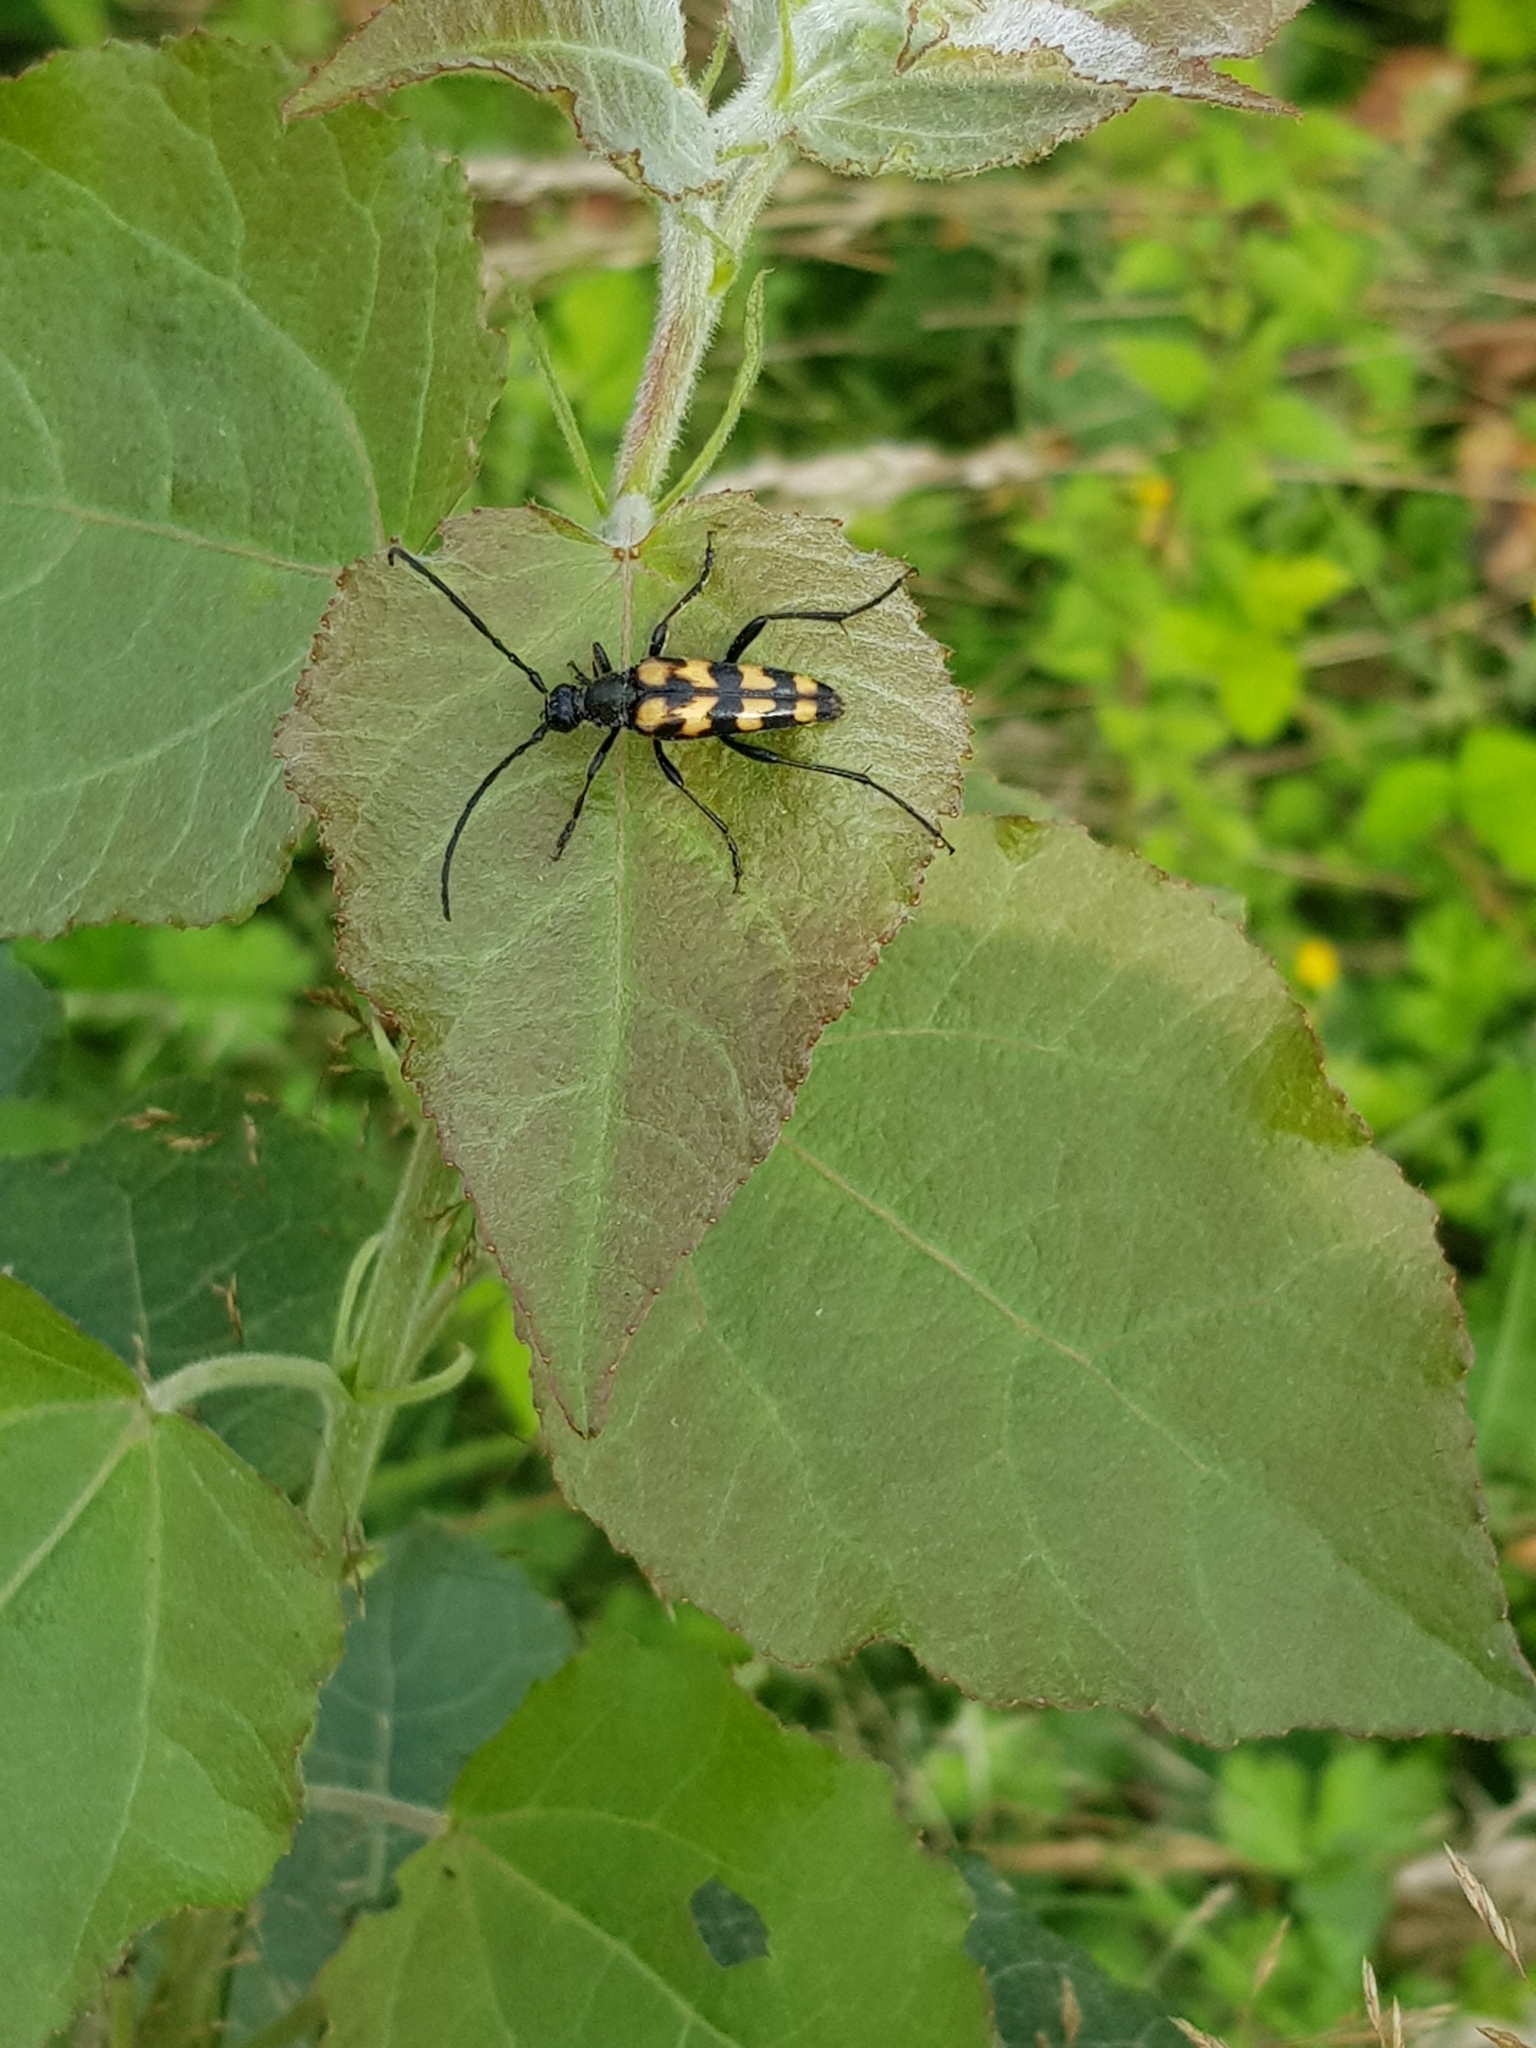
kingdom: Animalia
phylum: Arthropoda
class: Insecta
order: Coleoptera
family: Cerambycidae
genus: Leptura
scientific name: Leptura quadrifasciata
